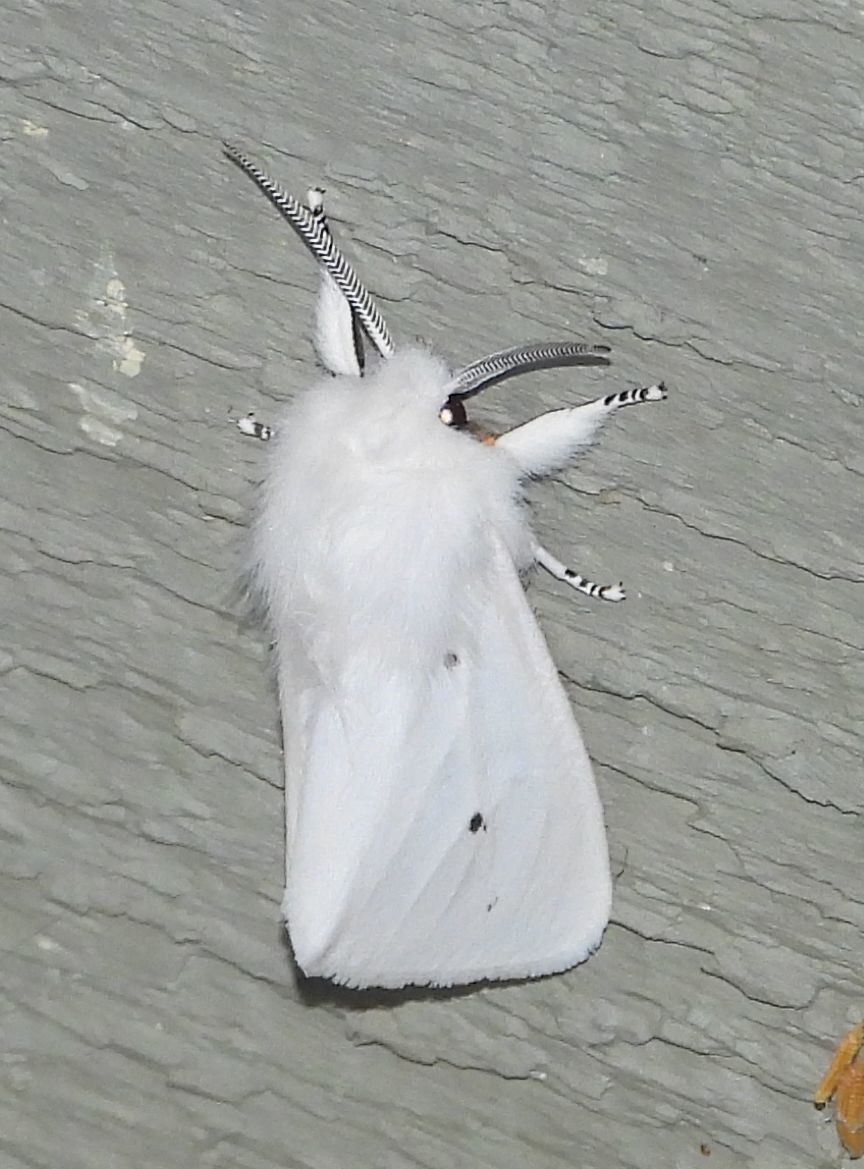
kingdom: Animalia
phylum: Arthropoda
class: Insecta
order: Lepidoptera
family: Erebidae
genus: Spilosoma
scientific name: Spilosoma virginica
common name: Virginia tiger moth
